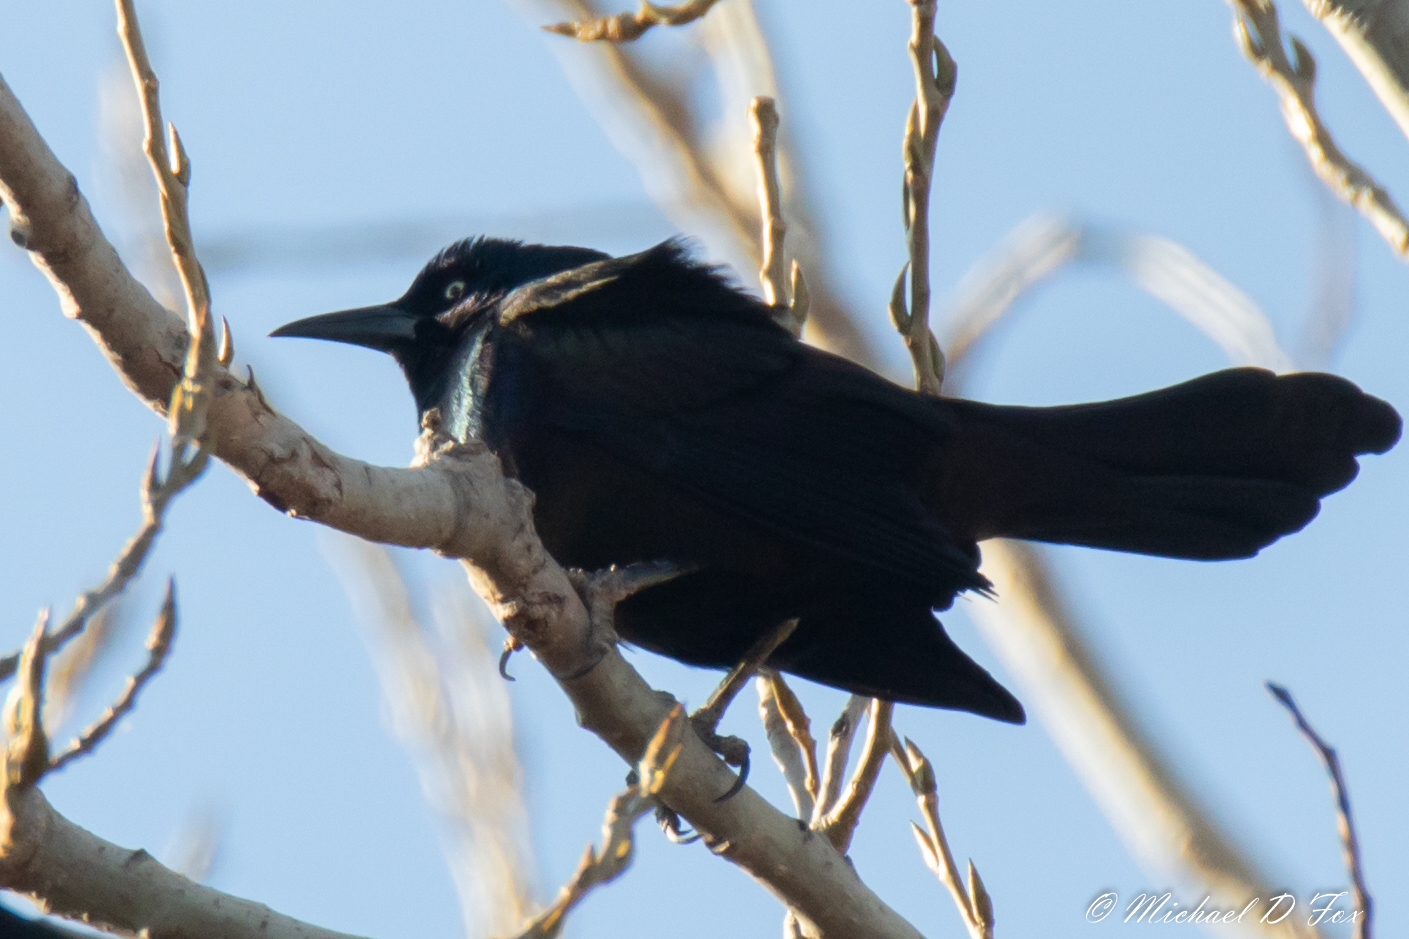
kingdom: Animalia
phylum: Chordata
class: Aves
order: Passeriformes
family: Icteridae
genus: Quiscalus
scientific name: Quiscalus mexicanus
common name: Great-tailed grackle
